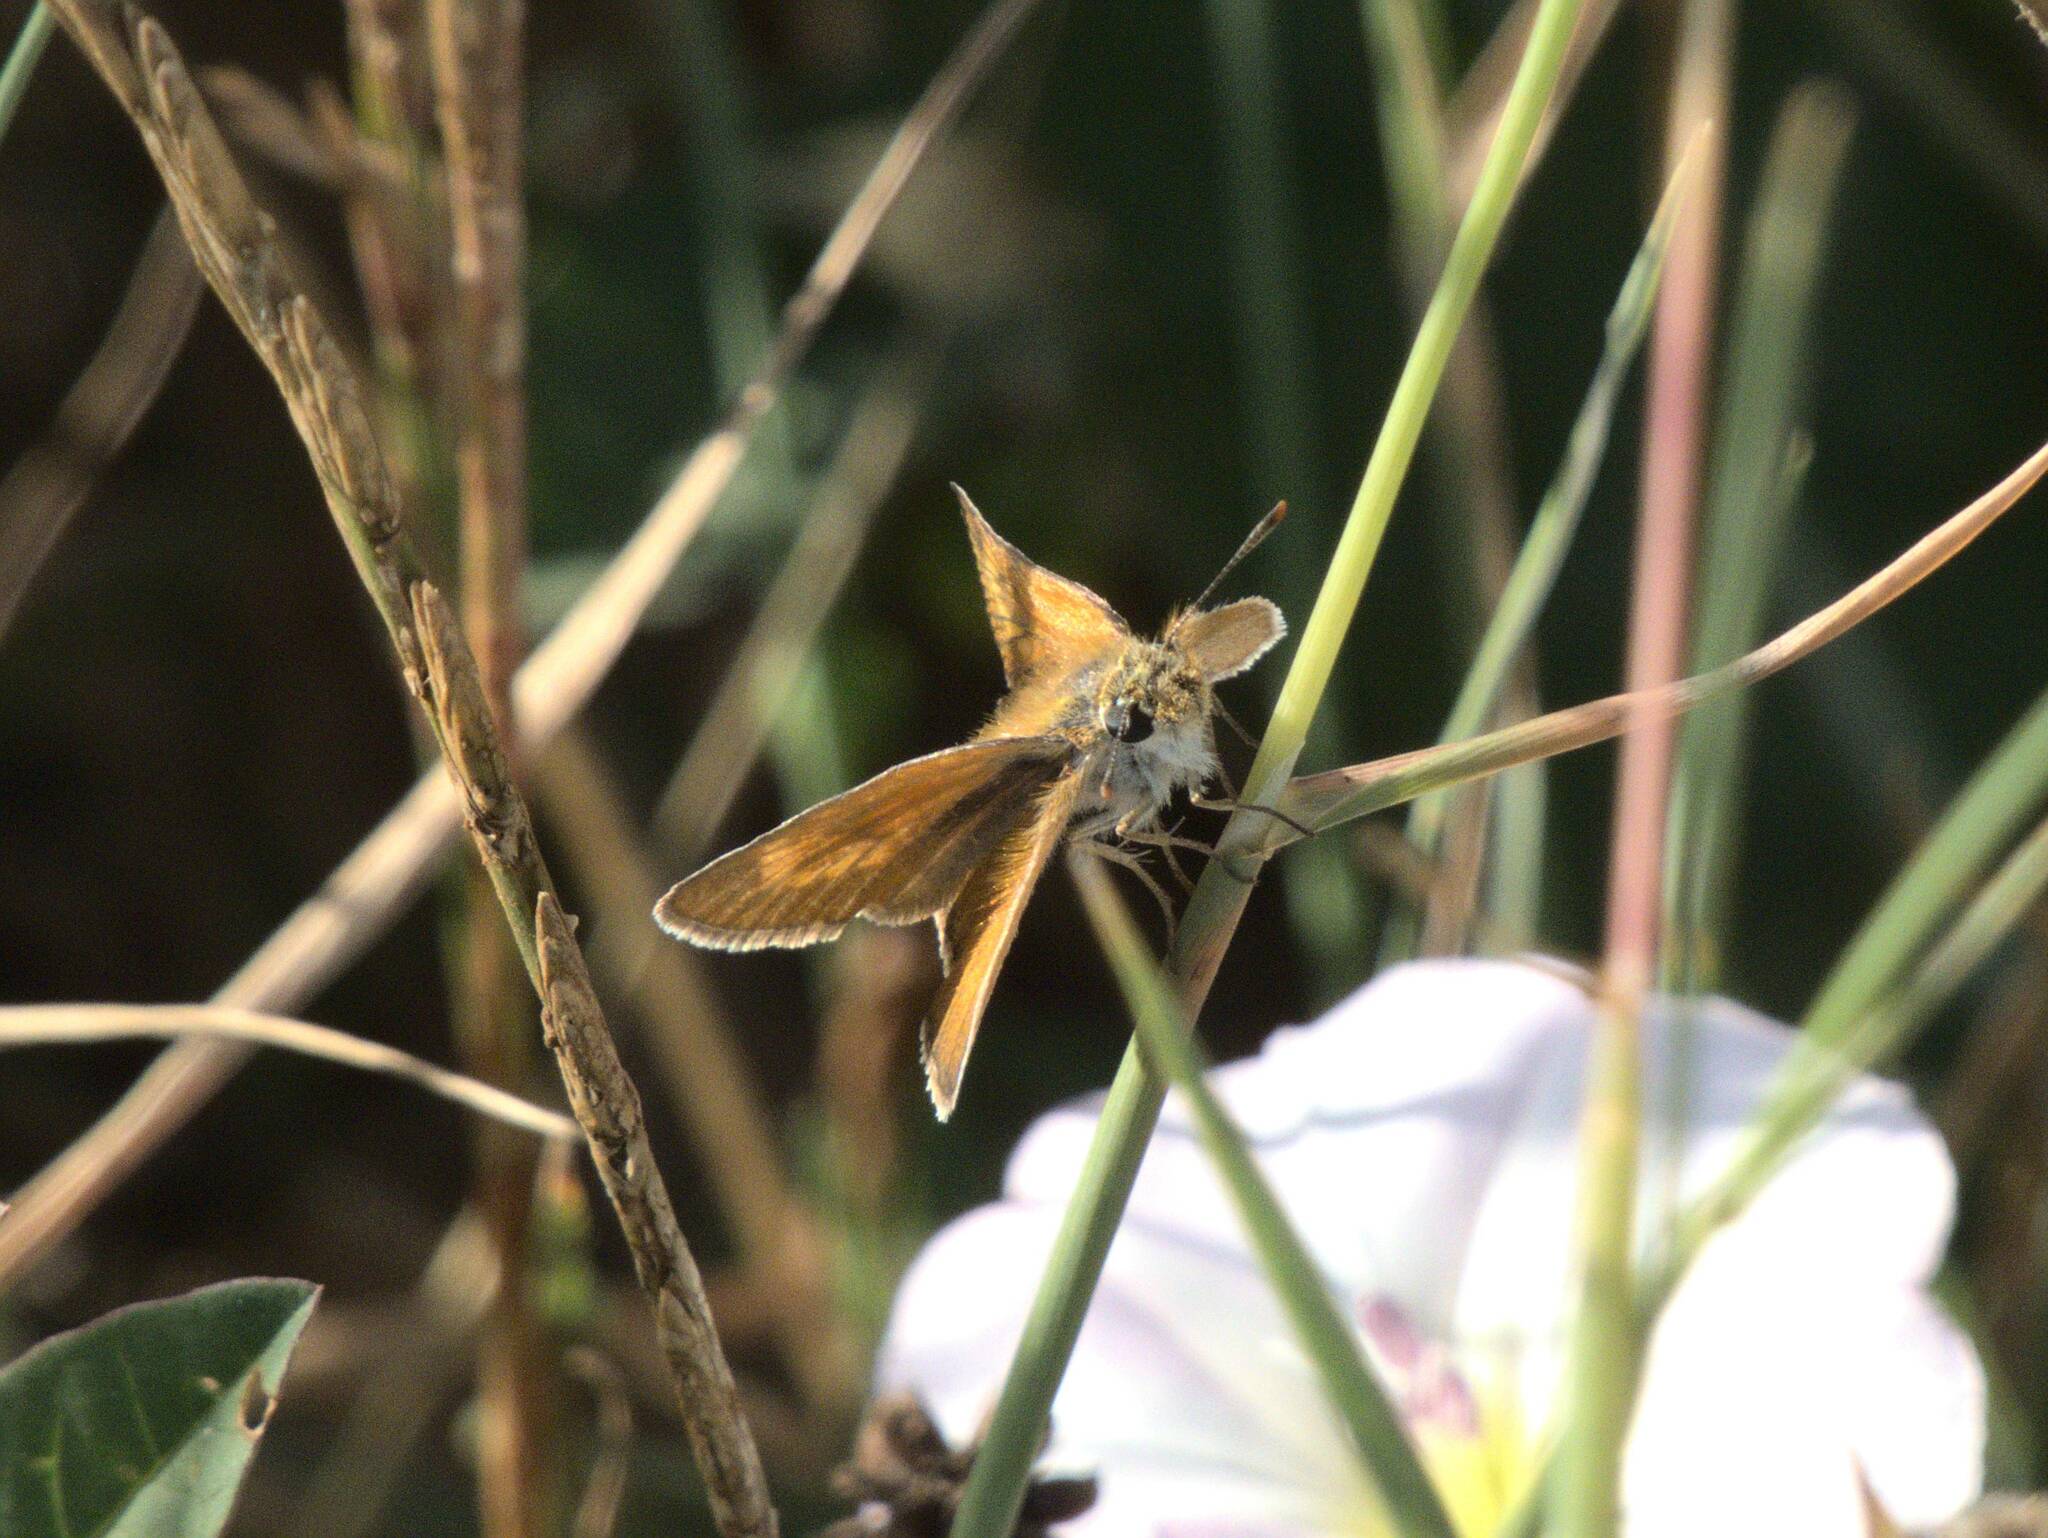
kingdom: Animalia
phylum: Arthropoda
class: Insecta
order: Lepidoptera
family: Hesperiidae
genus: Thymelicus
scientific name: Thymelicus acteon
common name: Lulworth skipper
